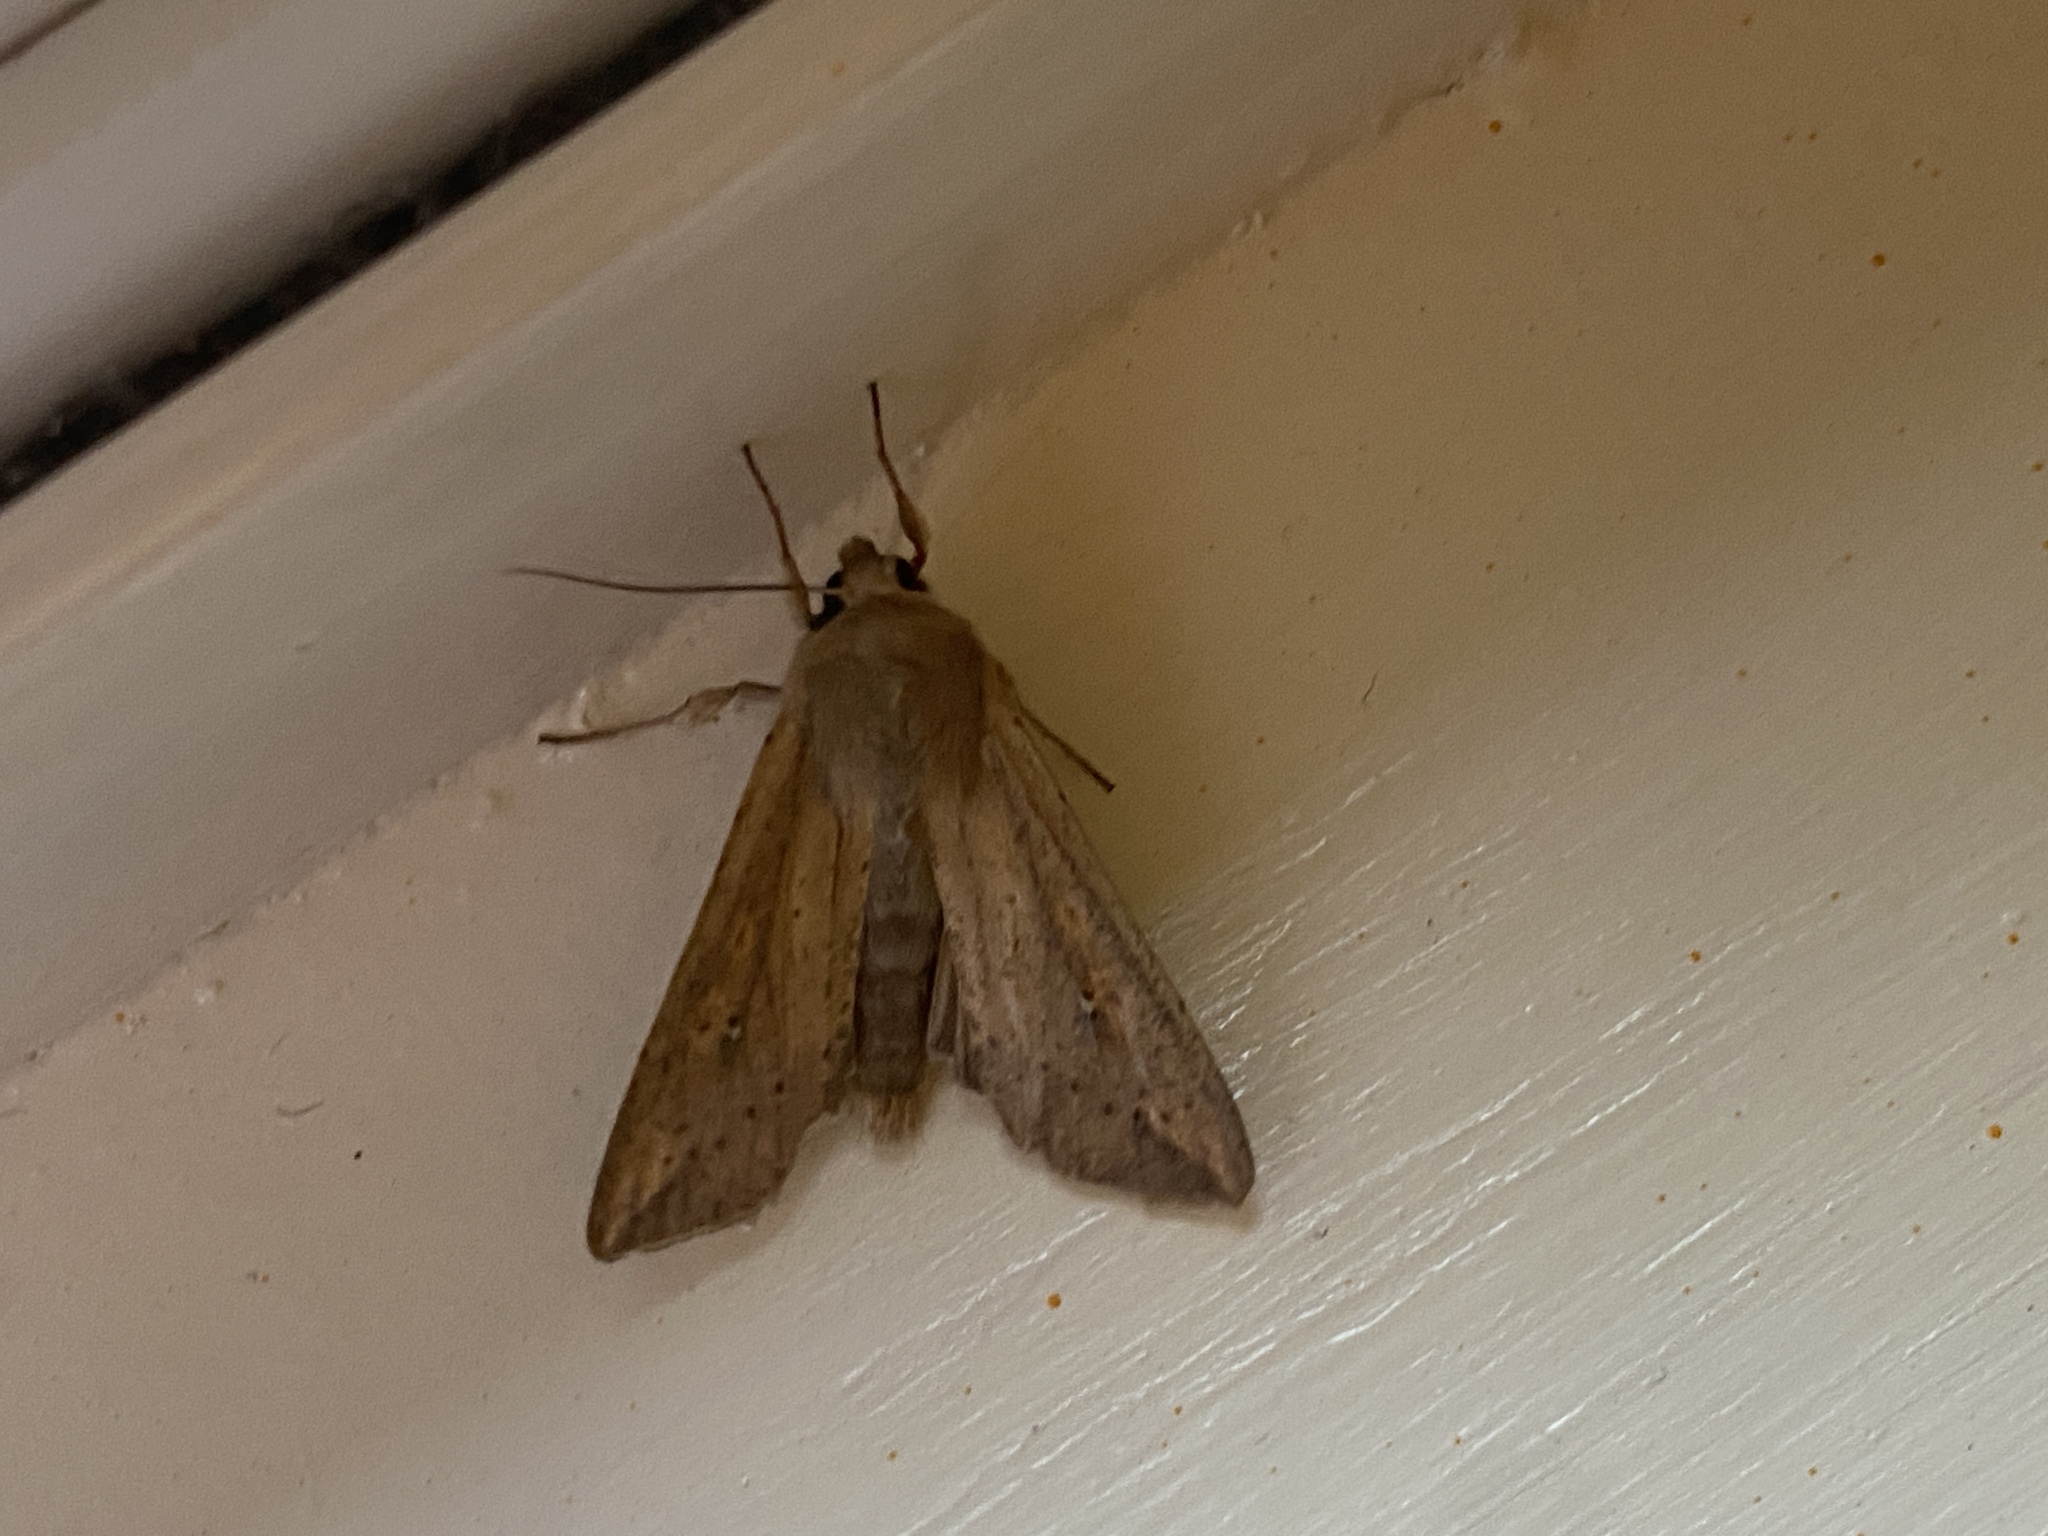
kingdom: Animalia
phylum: Arthropoda
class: Insecta
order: Lepidoptera
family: Noctuidae
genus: Mythimna
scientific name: Mythimna unipuncta
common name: White-speck
